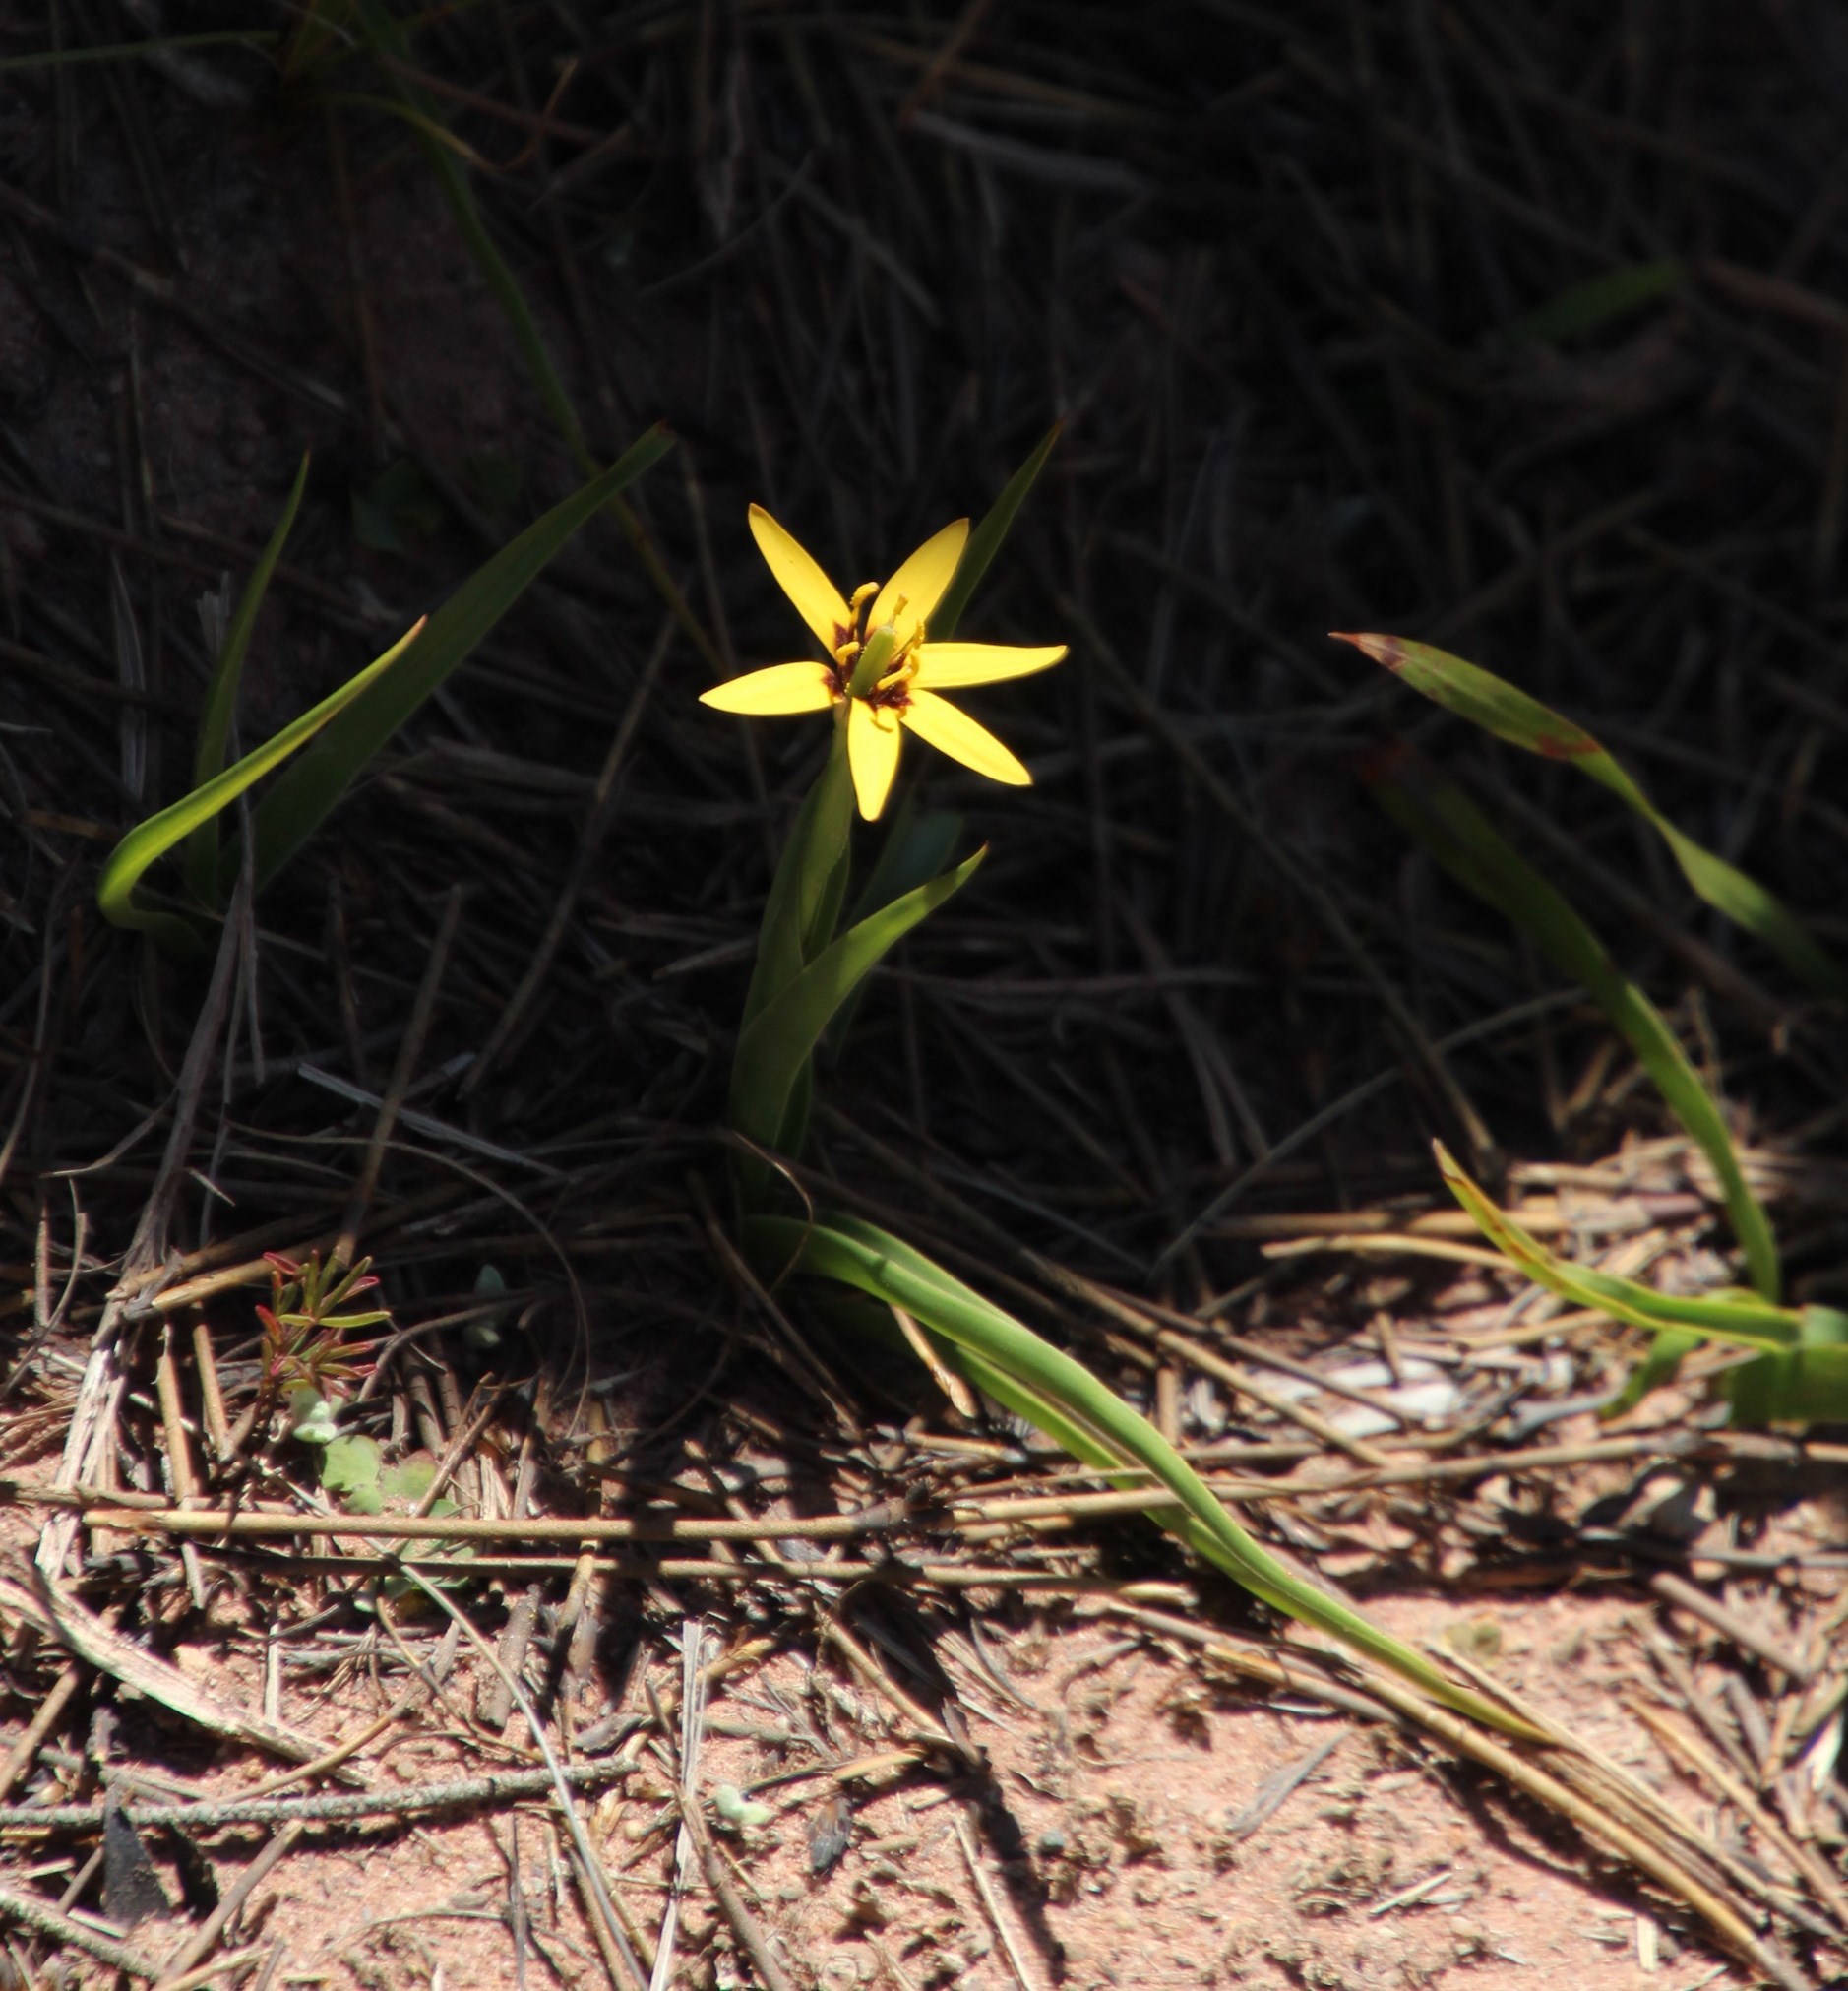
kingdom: Plantae
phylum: Tracheophyta
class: Liliopsida
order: Liliales
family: Colchicaceae
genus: Baeometra
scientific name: Baeometra uniflora
